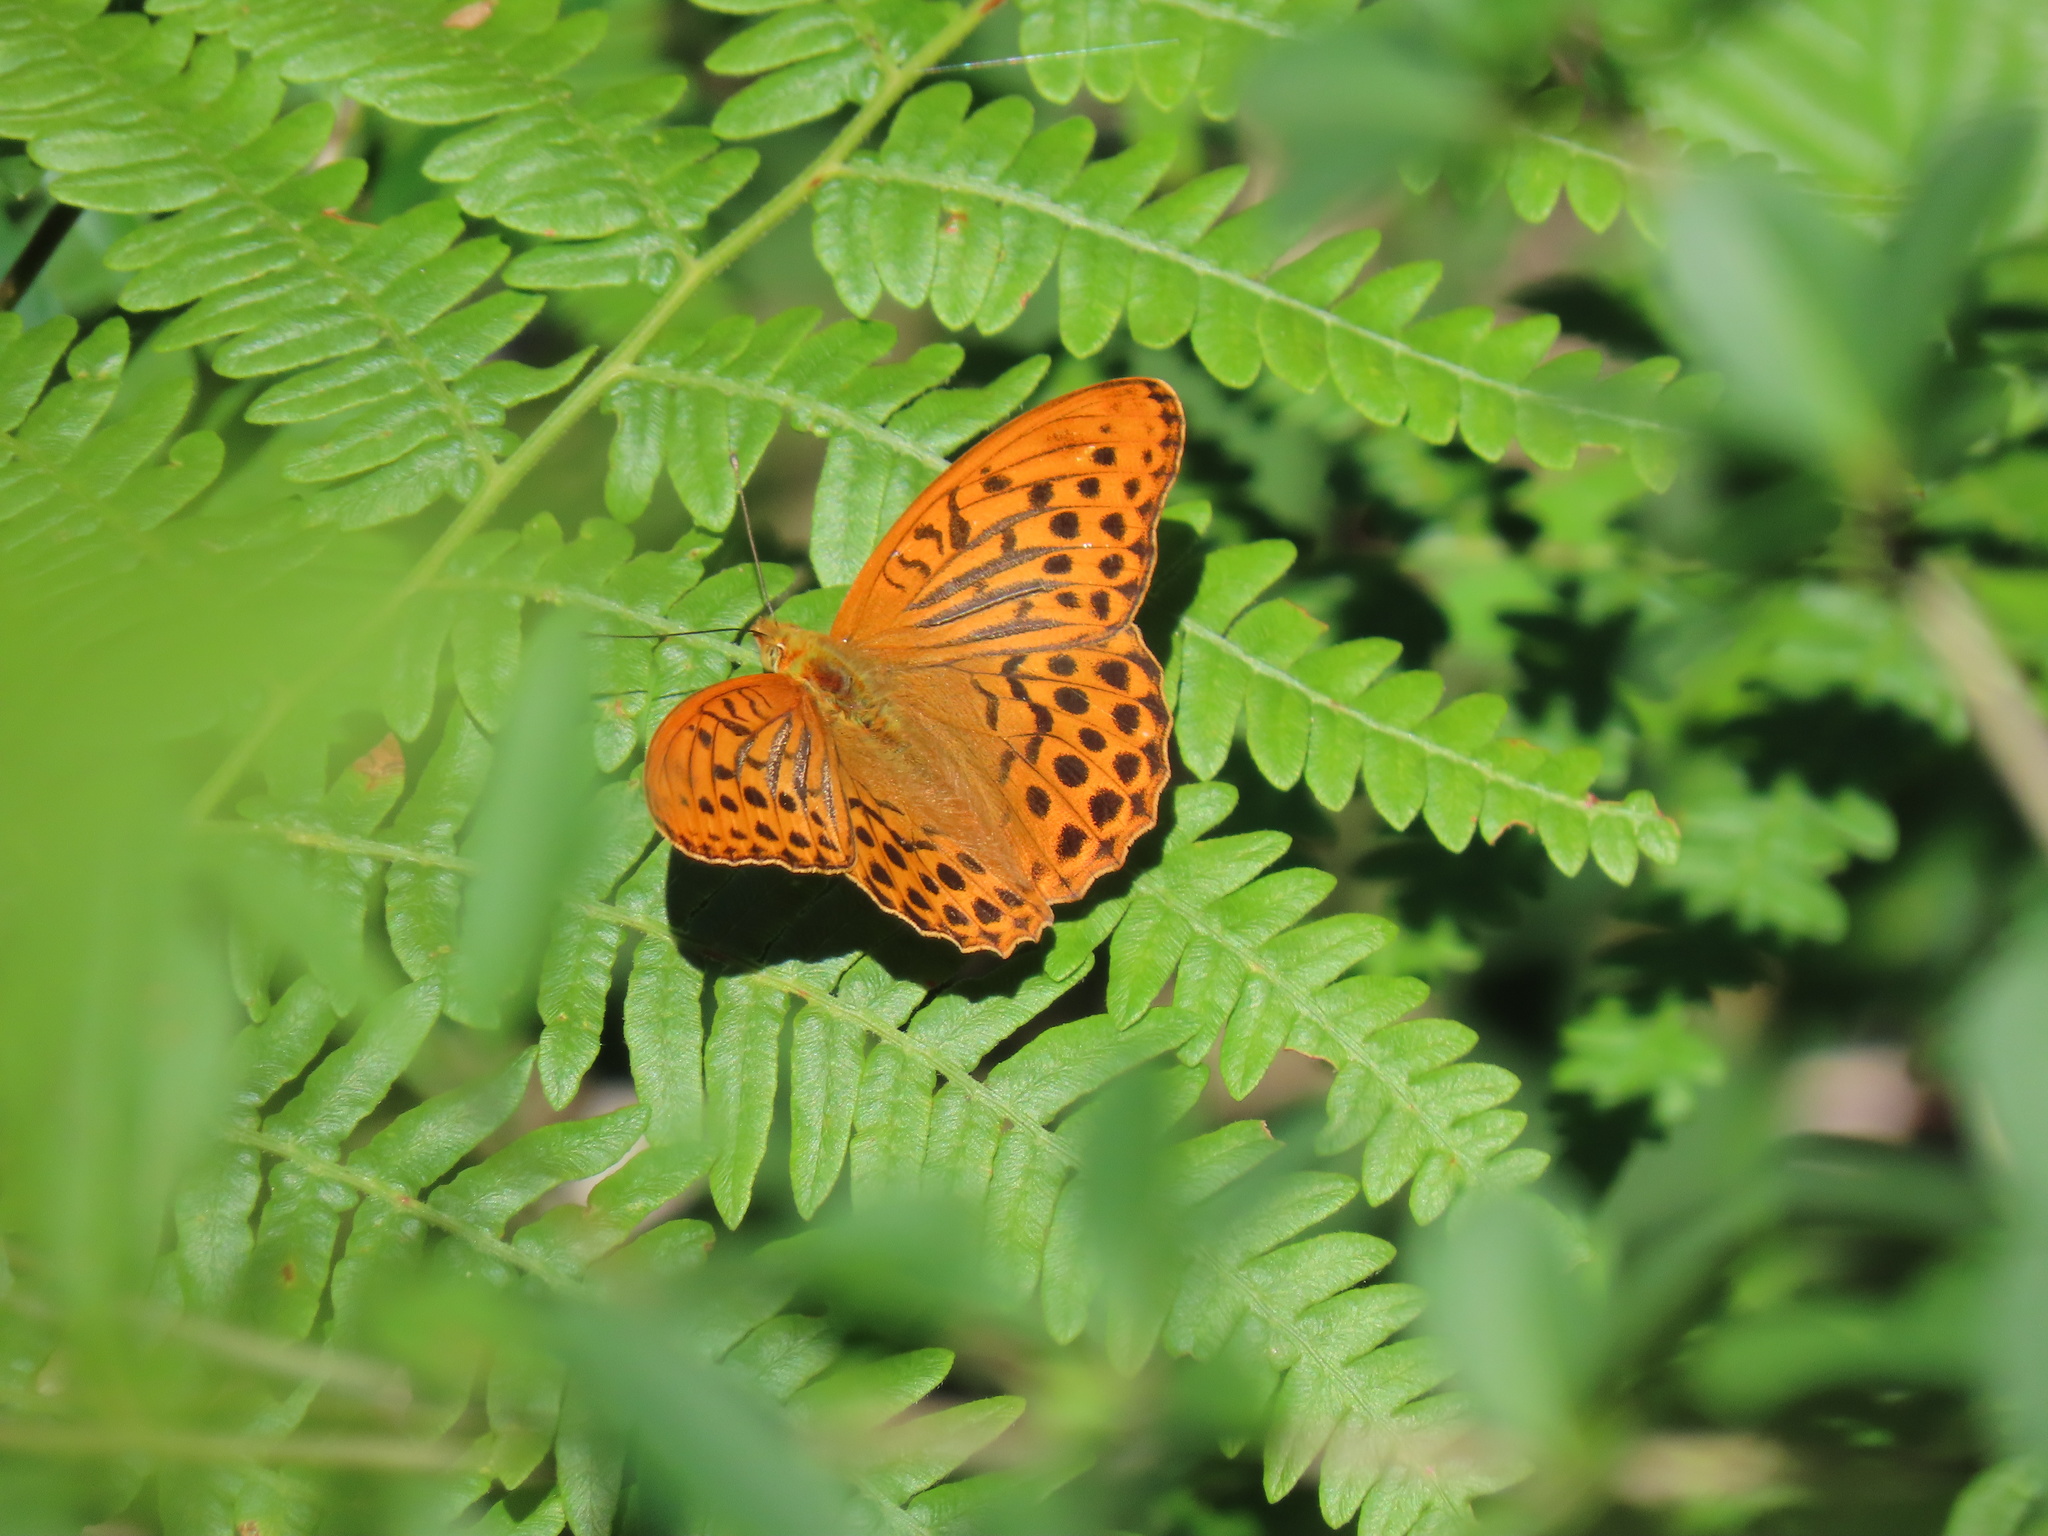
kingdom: Animalia
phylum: Arthropoda
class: Insecta
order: Lepidoptera
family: Nymphalidae
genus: Argynnis
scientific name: Argynnis paphia
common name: Silver-washed fritillary
